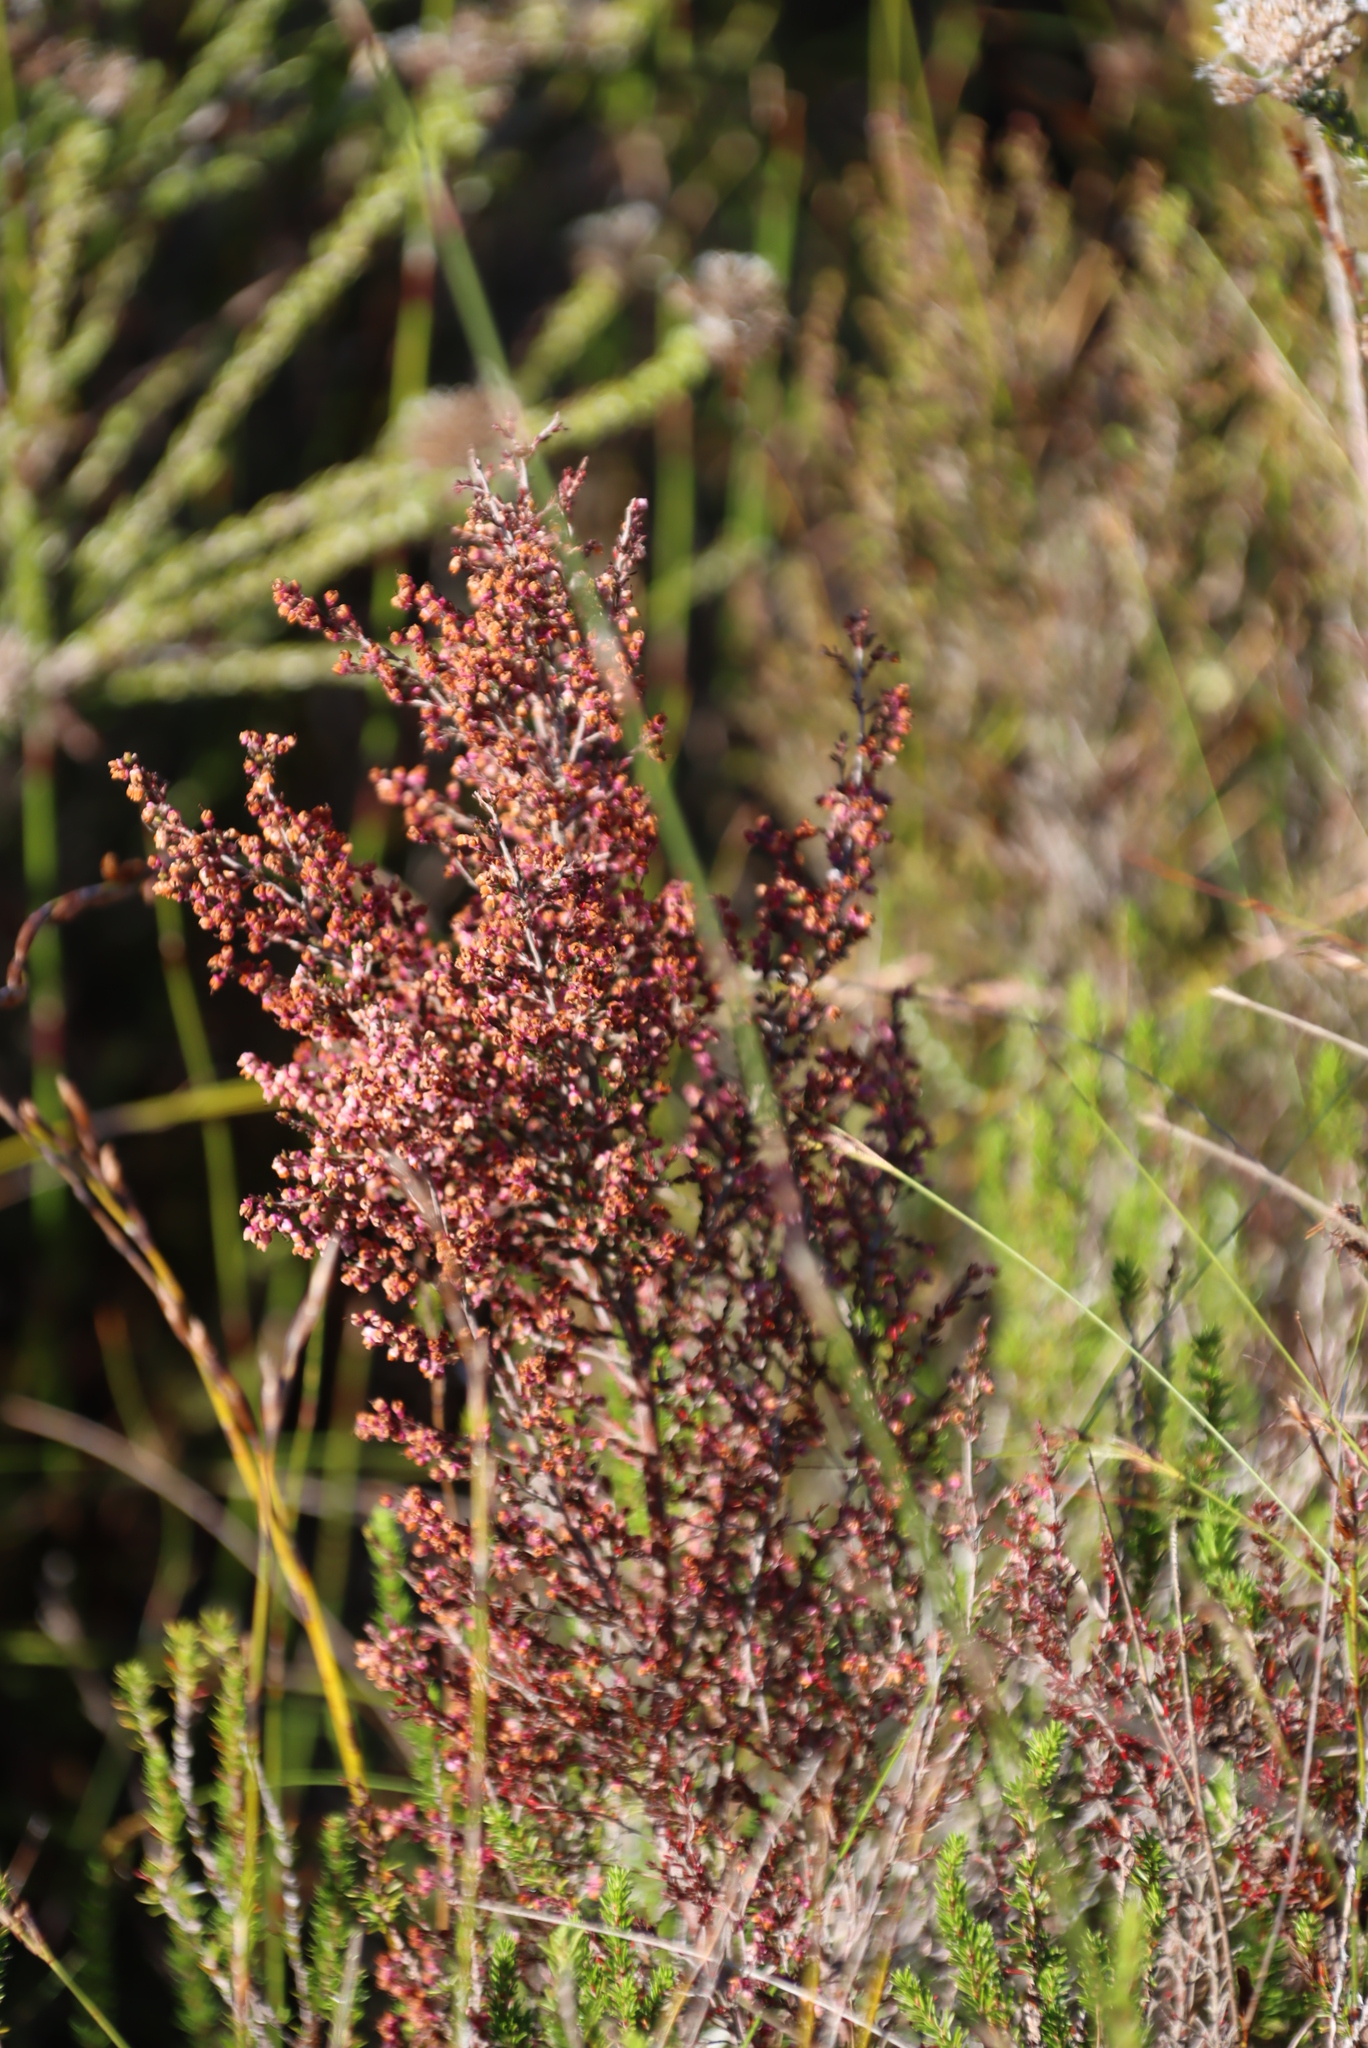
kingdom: Plantae
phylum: Tracheophyta
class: Magnoliopsida
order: Ericales
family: Ericaceae
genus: Erica
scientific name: Erica sparsa
